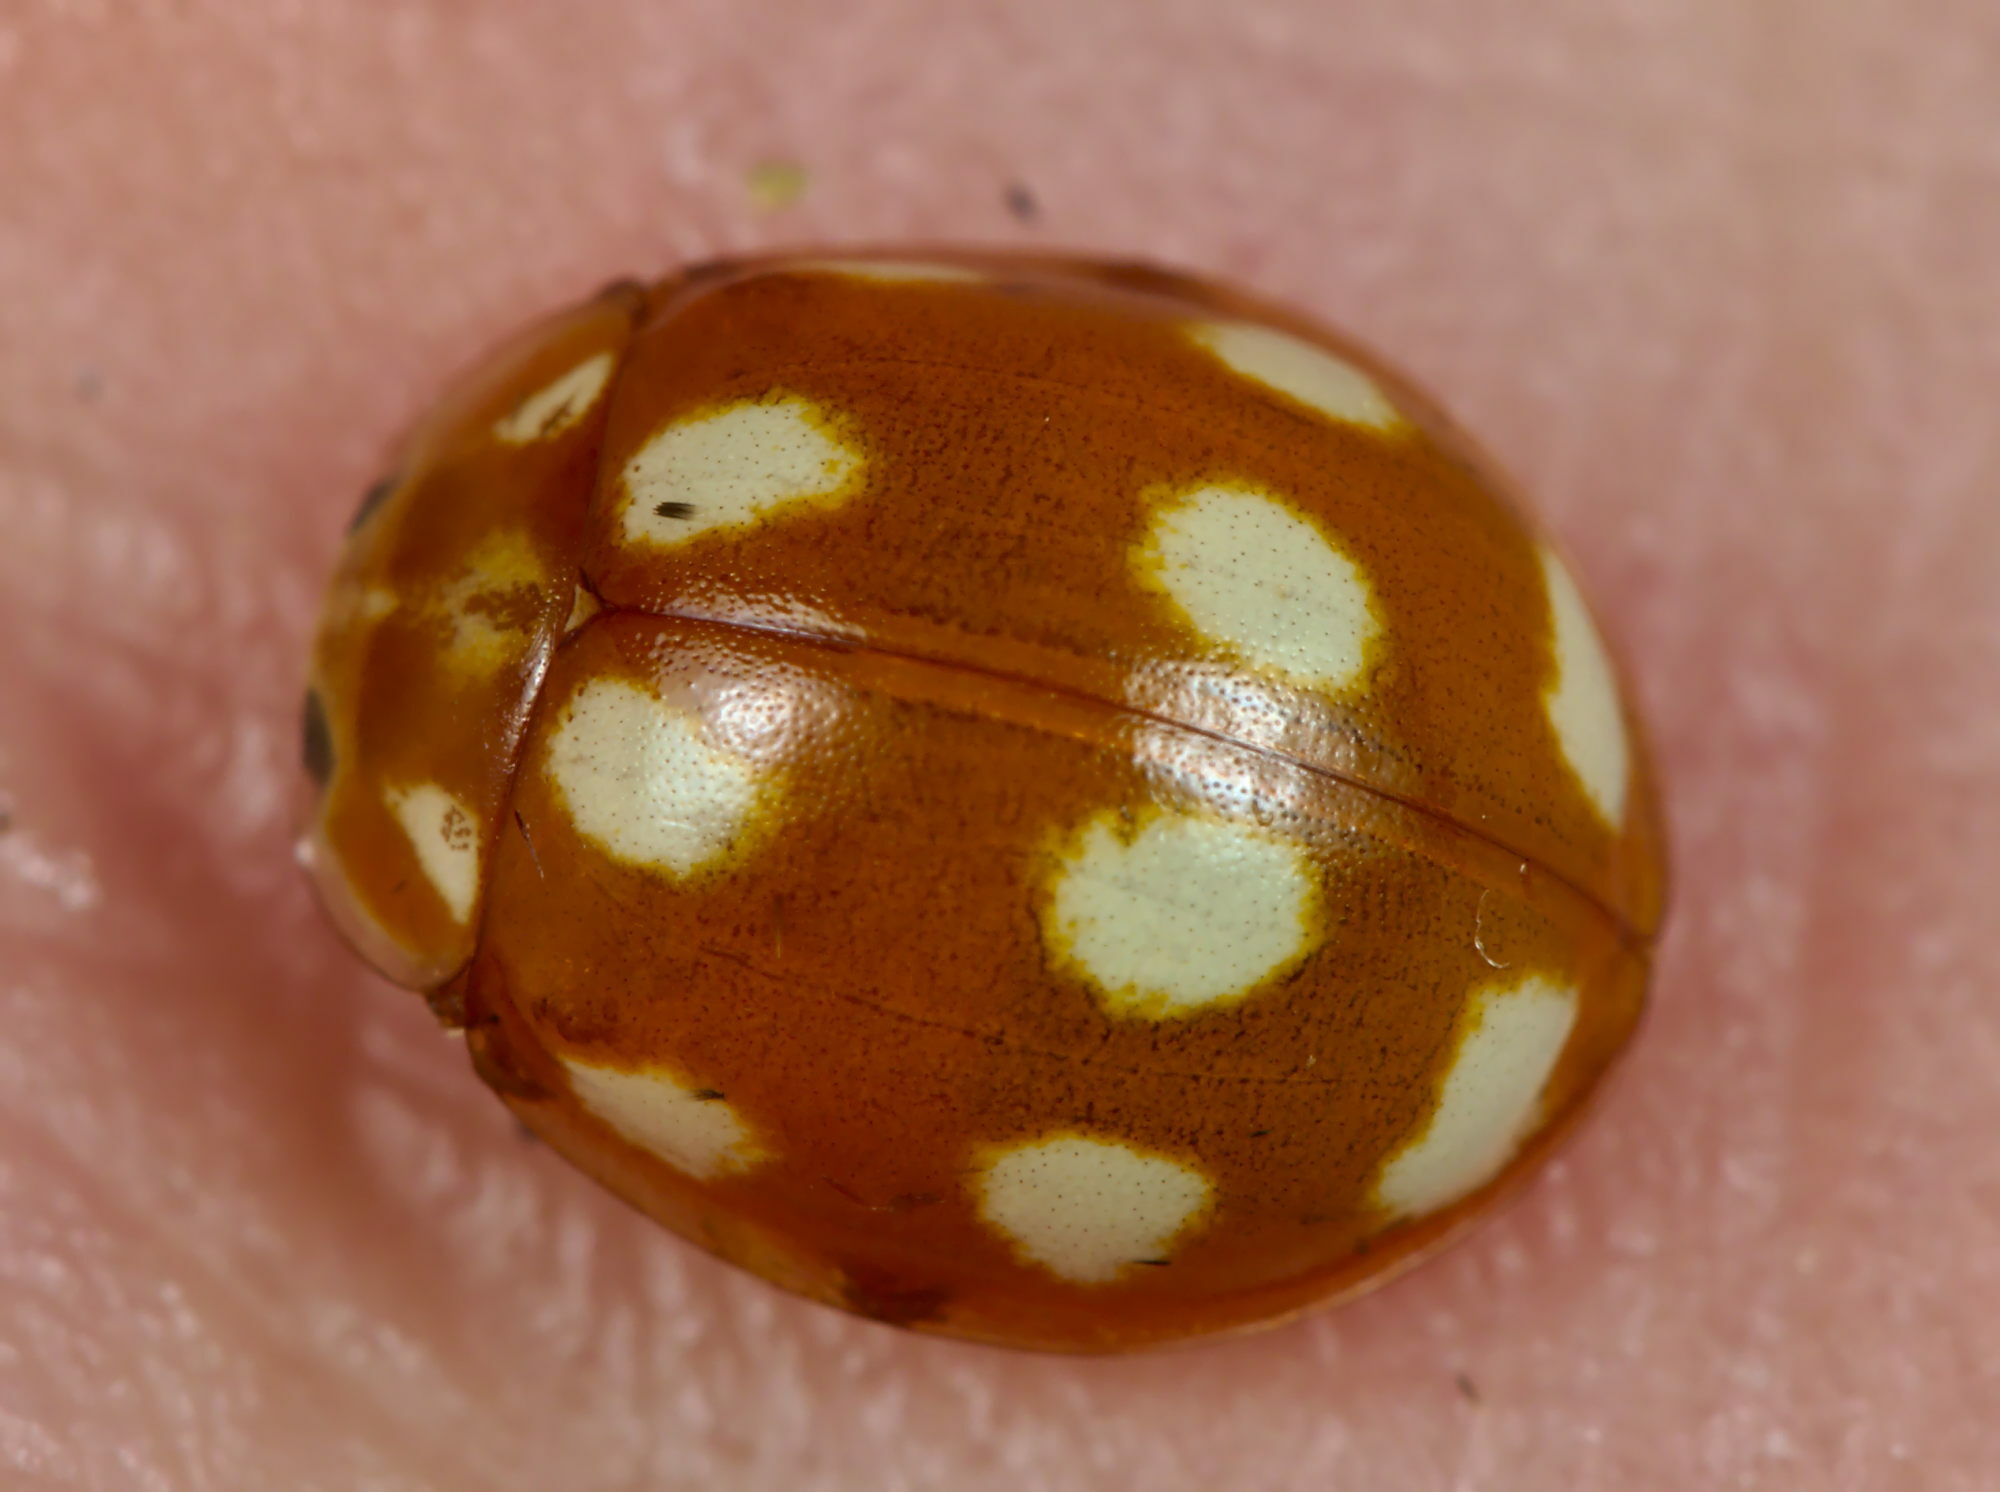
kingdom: Animalia
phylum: Arthropoda
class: Insecta
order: Coleoptera
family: Coccinellidae
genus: Calvia
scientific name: Calvia decemguttata
